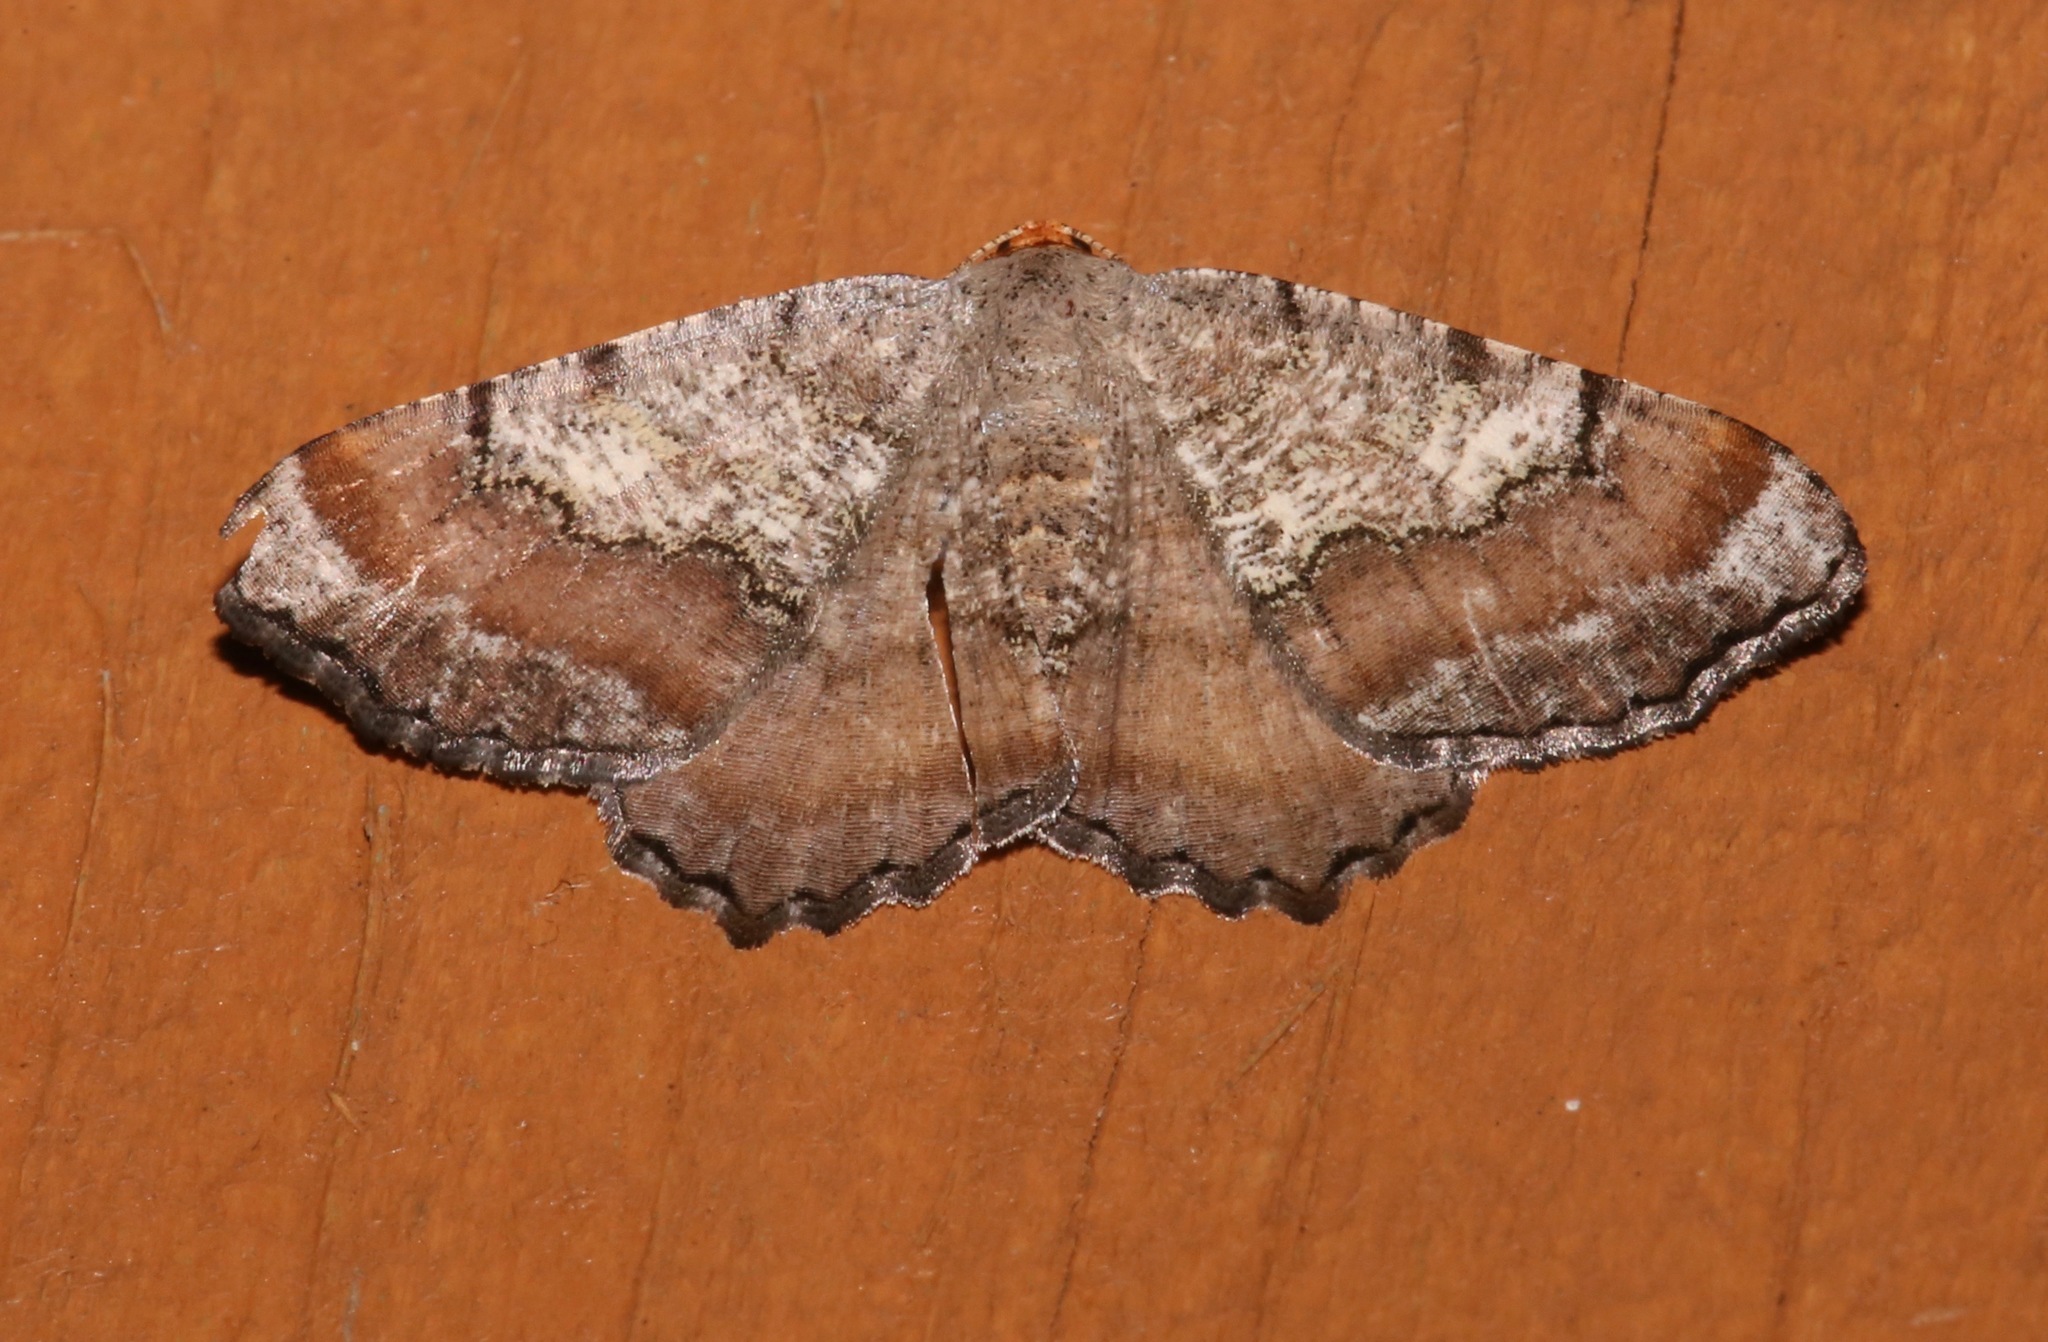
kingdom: Animalia
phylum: Arthropoda
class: Insecta
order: Lepidoptera
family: Geometridae
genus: Macaria
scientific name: Macaria distribuaria
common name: Southern chocolate angle
